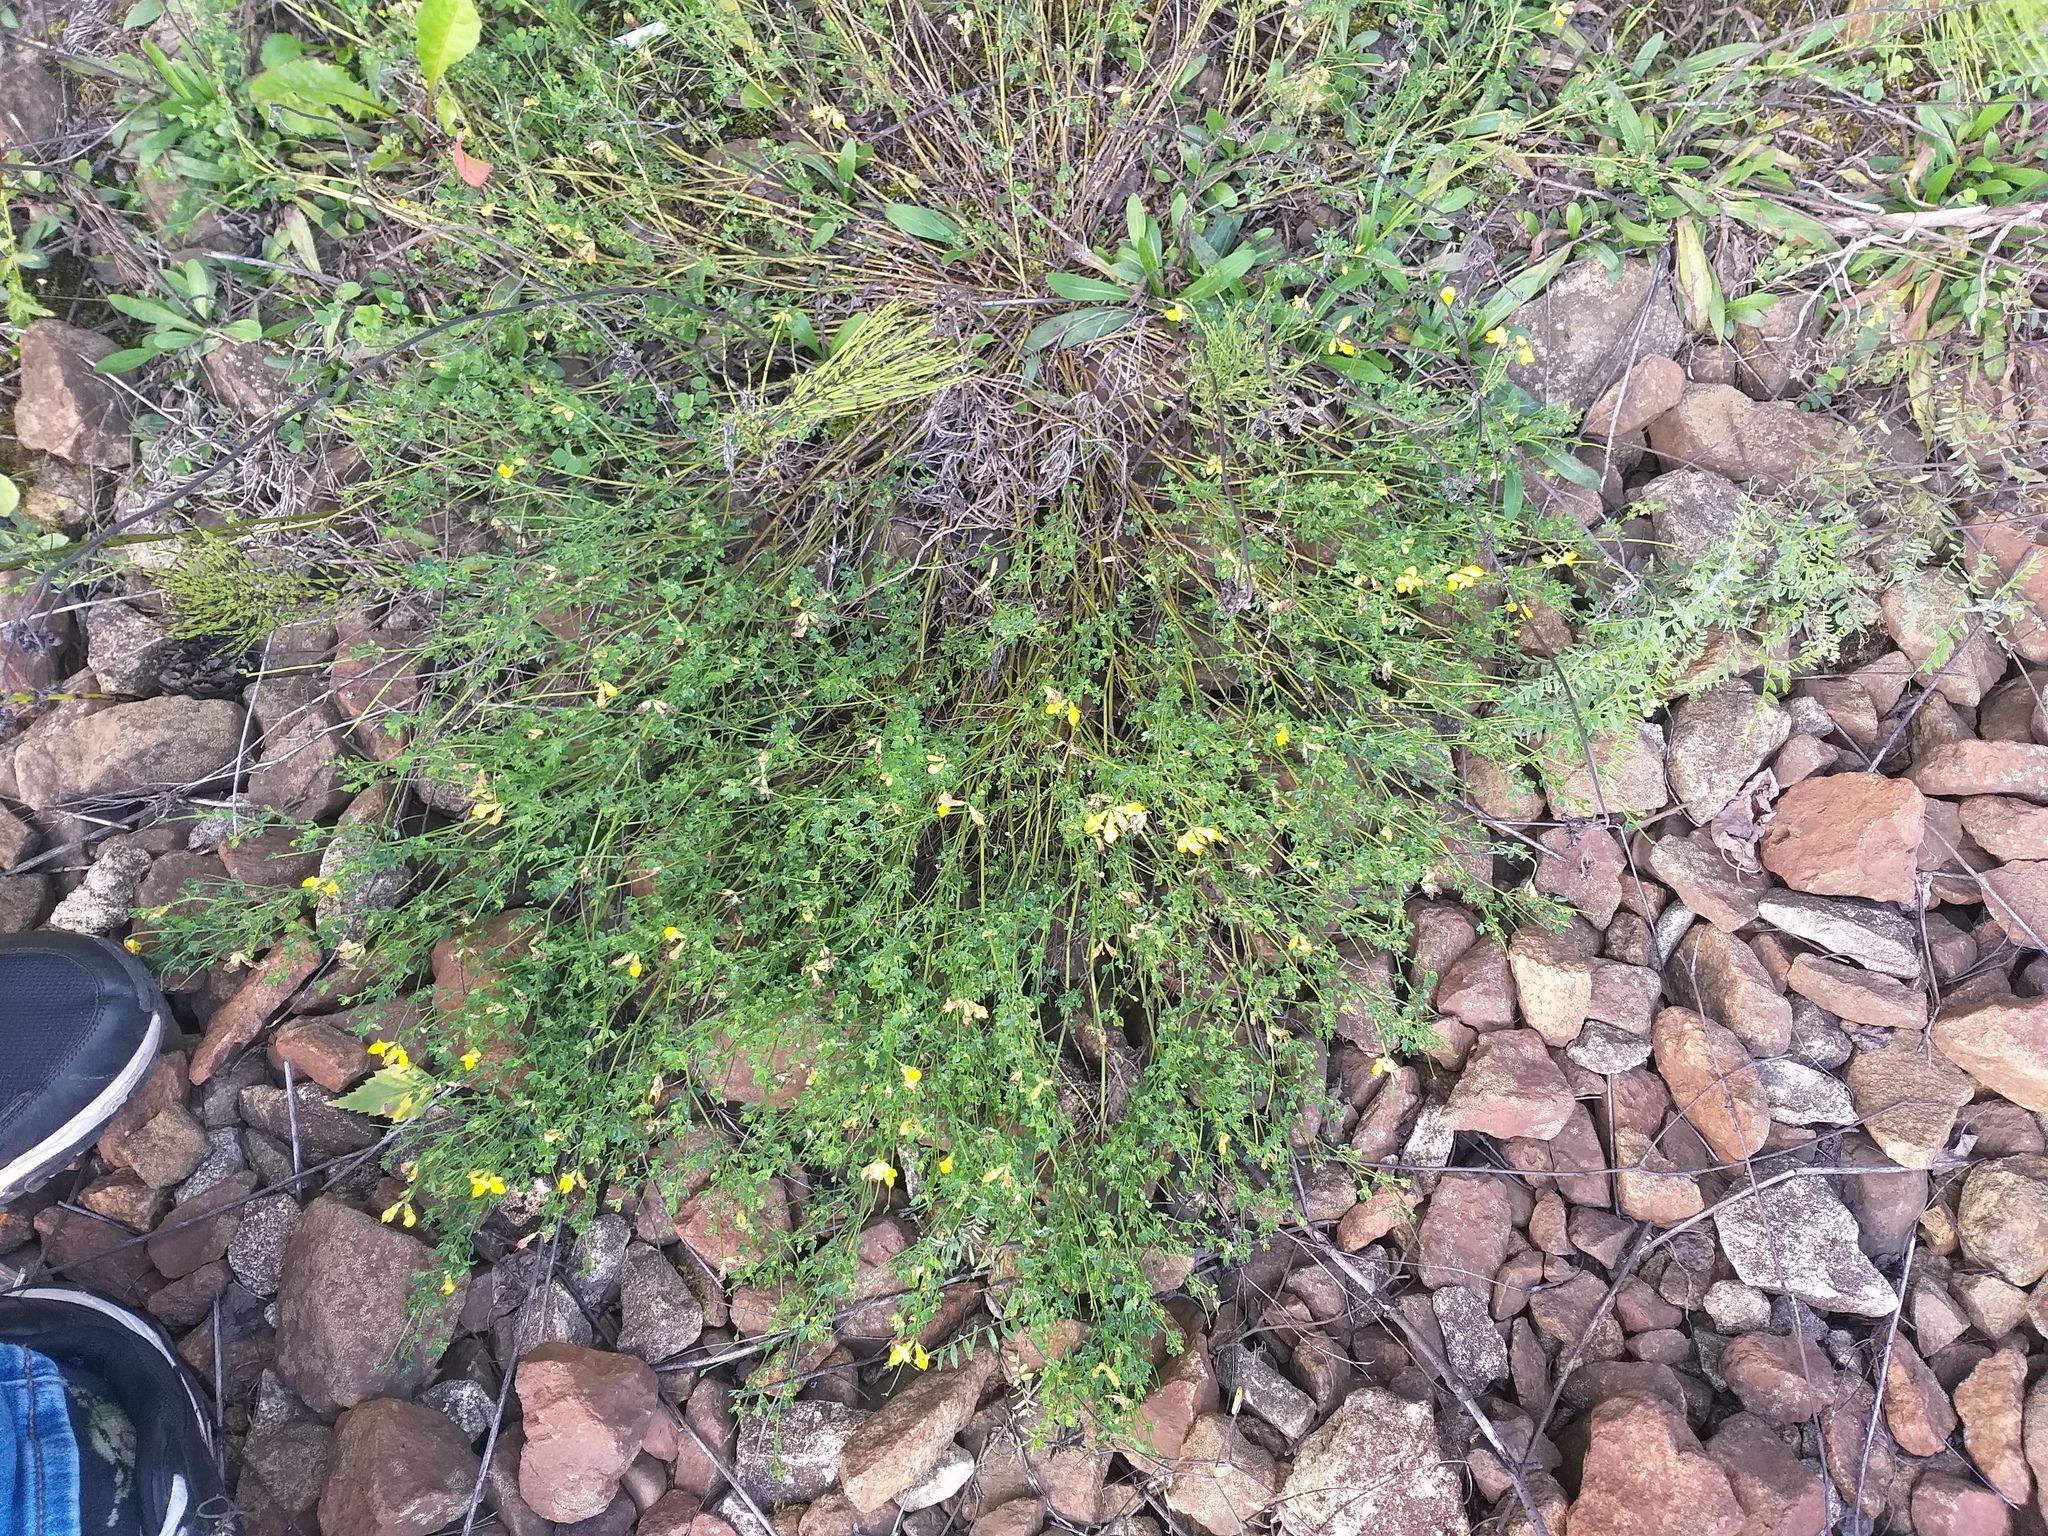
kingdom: Plantae
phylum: Tracheophyta
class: Magnoliopsida
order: Fabales
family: Fabaceae
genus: Lotus
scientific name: Lotus corniculatus
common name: Common bird's-foot-trefoil
